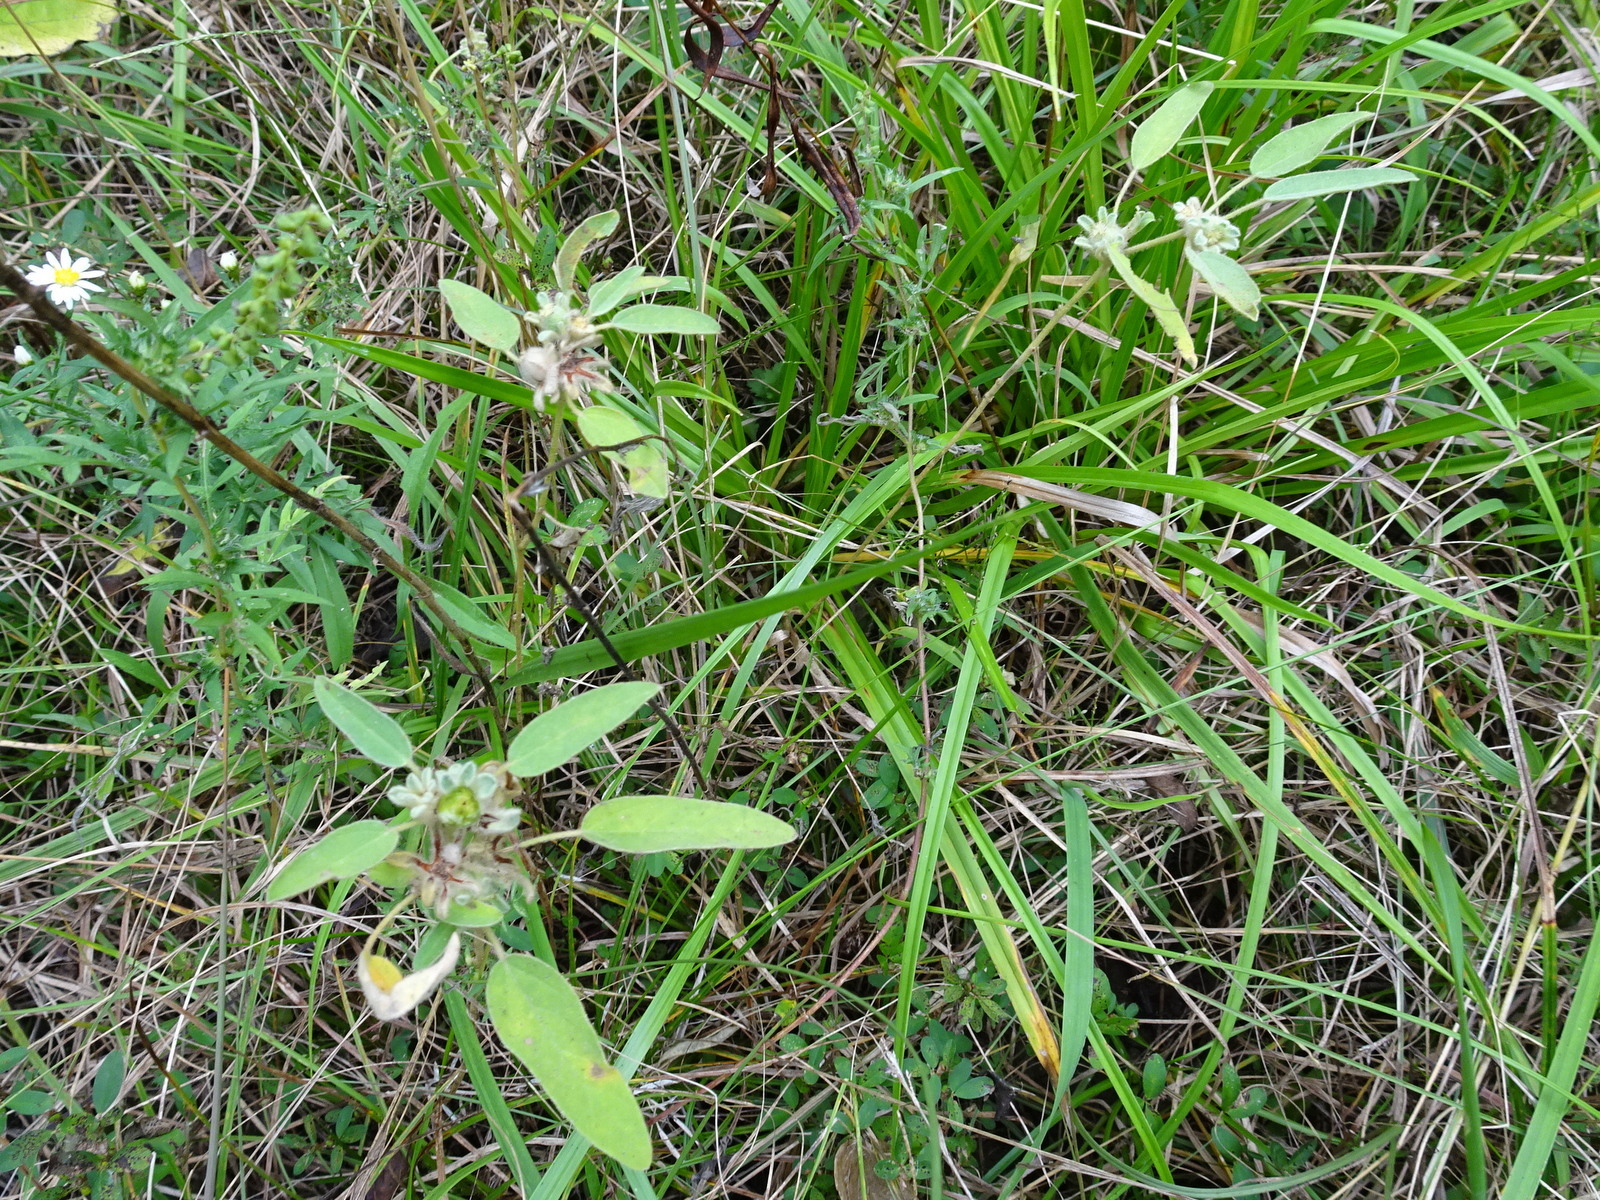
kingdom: Plantae
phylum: Tracheophyta
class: Magnoliopsida
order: Malpighiales
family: Euphorbiaceae
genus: Croton
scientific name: Croton capitatus
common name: Woolly croton
